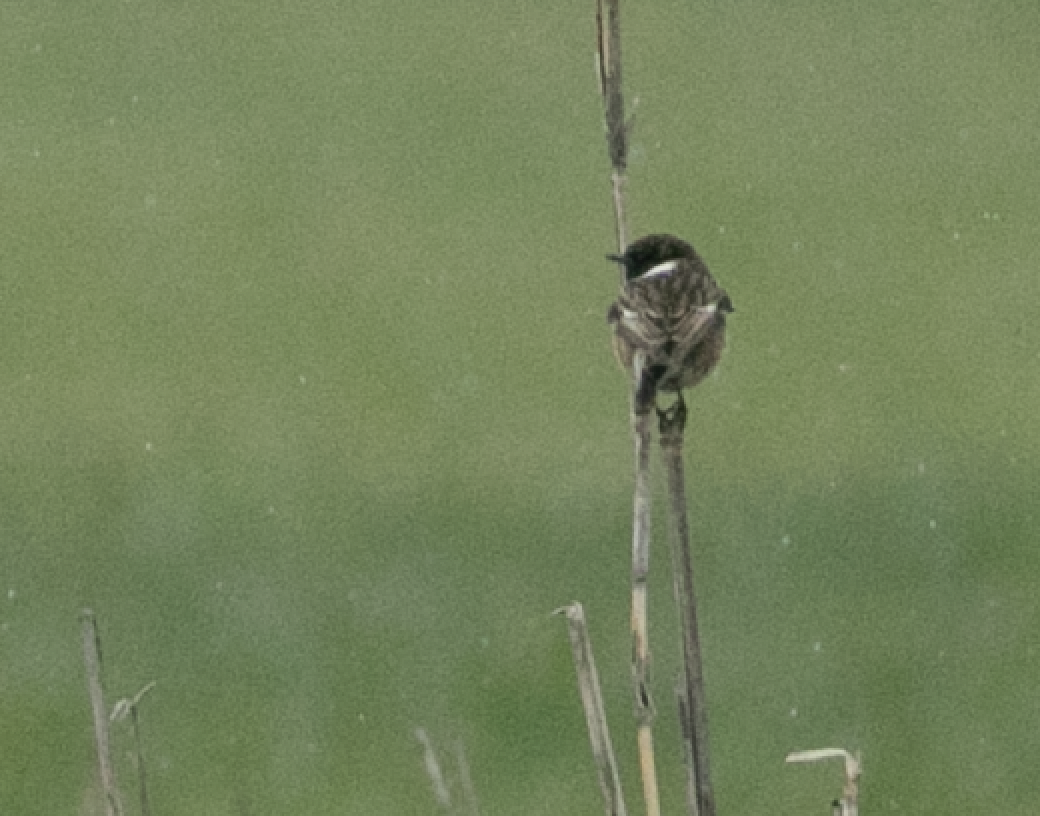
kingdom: Animalia
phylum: Chordata
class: Aves
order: Passeriformes
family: Muscicapidae
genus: Saxicola
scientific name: Saxicola rubicola
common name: European stonechat
